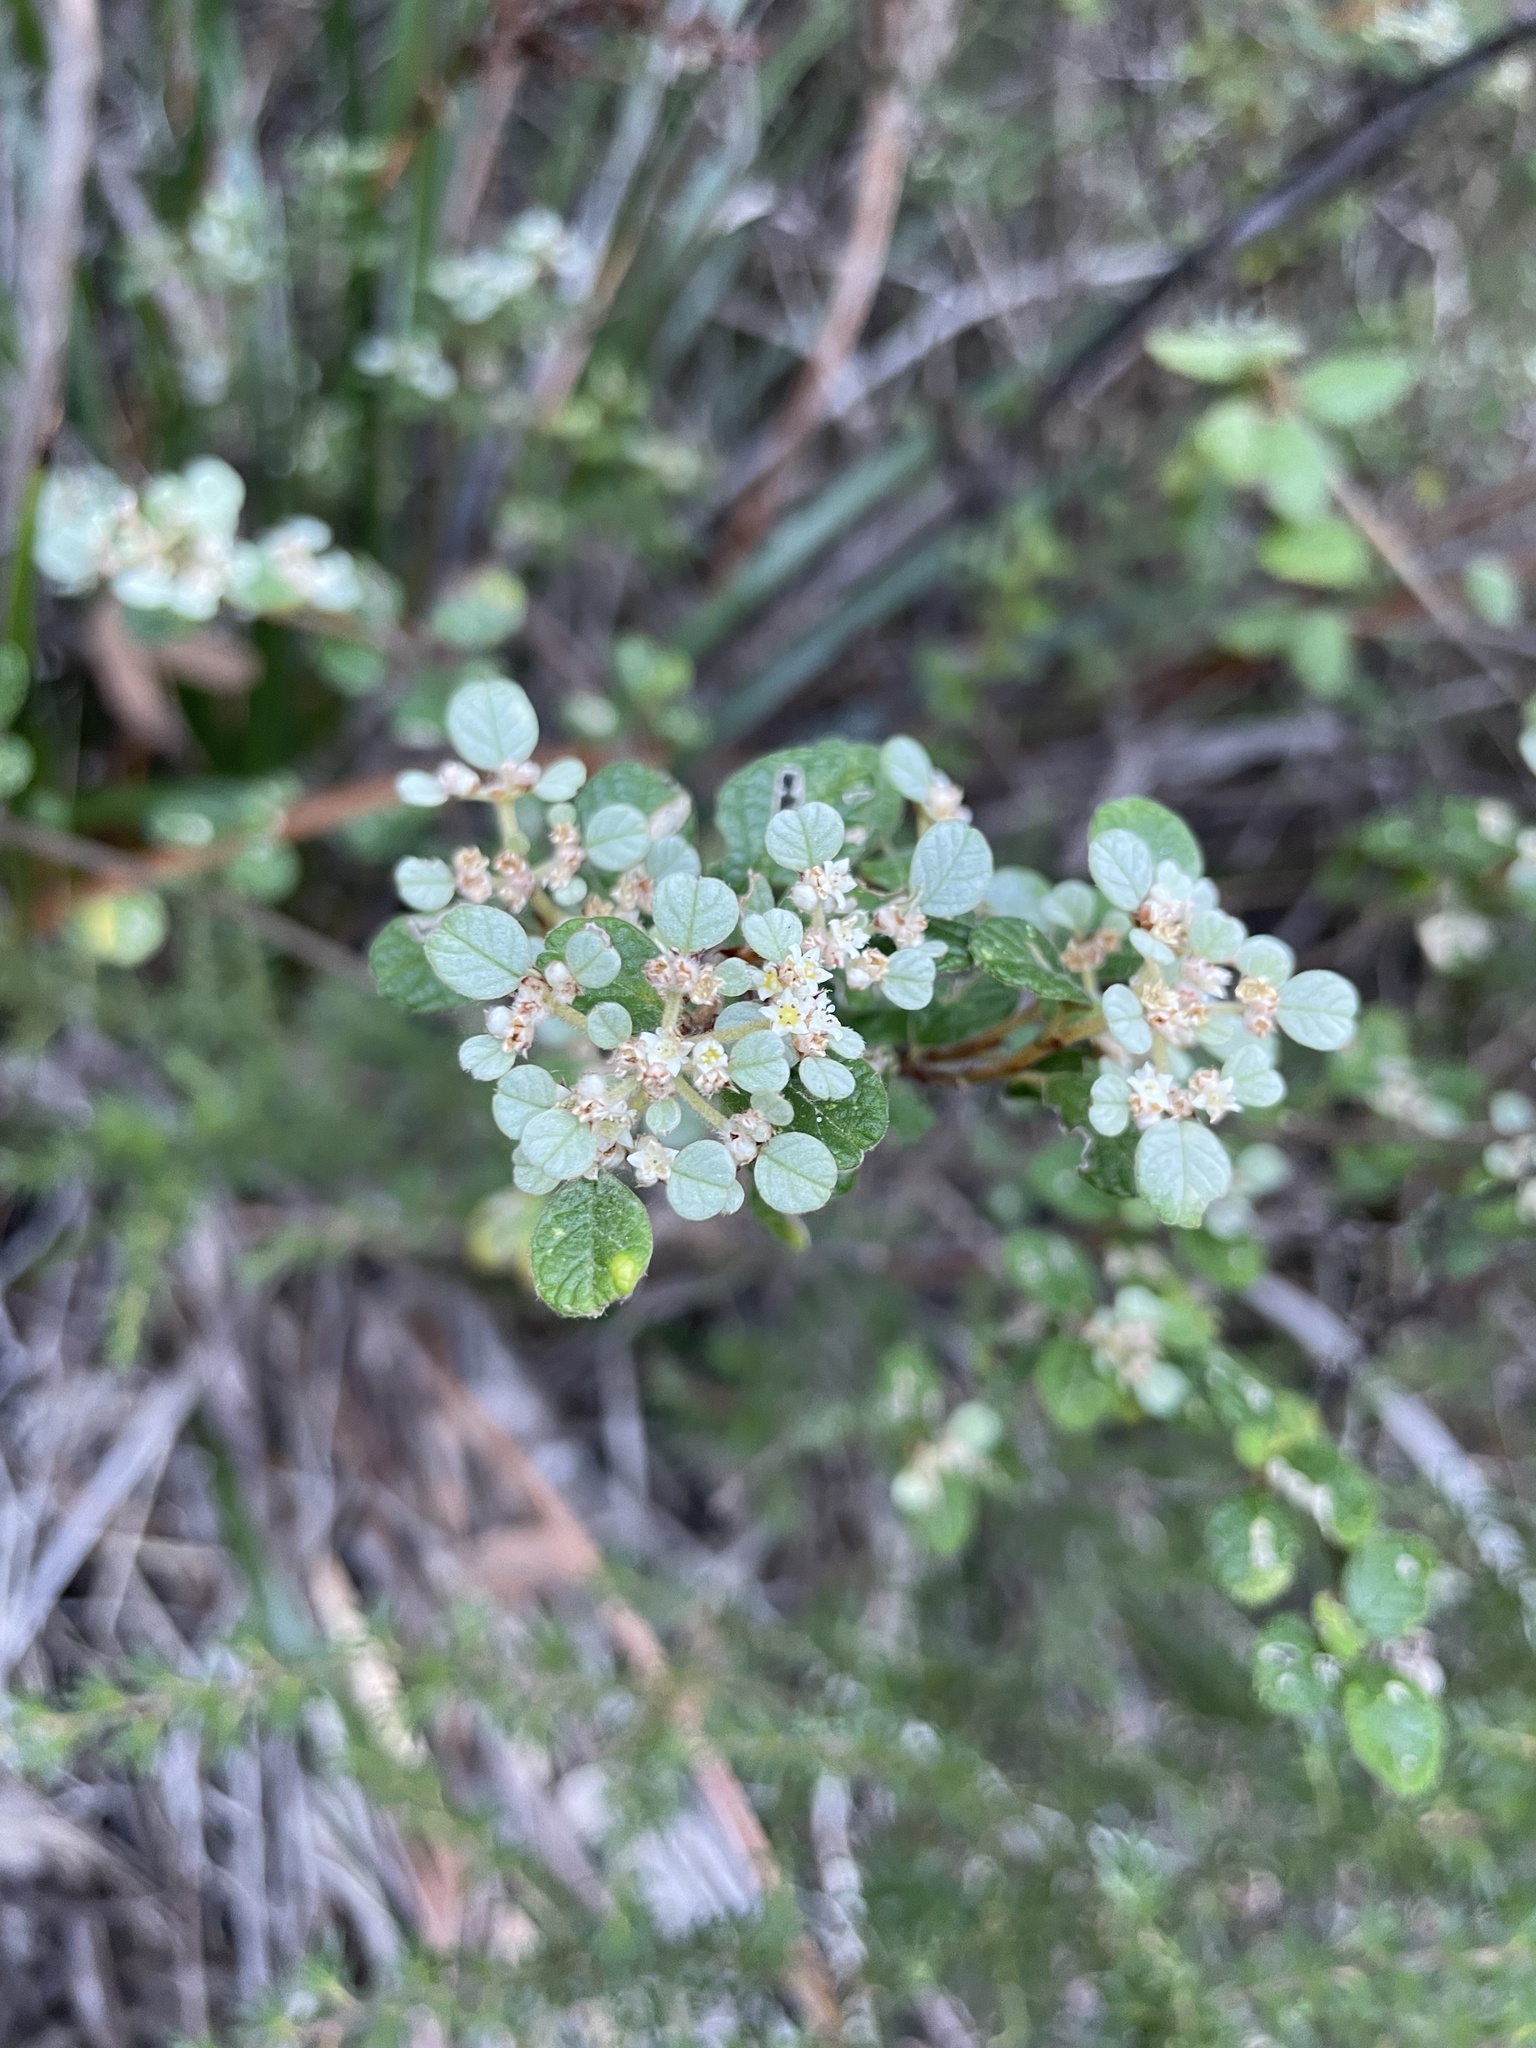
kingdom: Plantae
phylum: Tracheophyta
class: Magnoliopsida
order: Rosales
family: Rhamnaceae
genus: Spyridium
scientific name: Spyridium parvifolium
